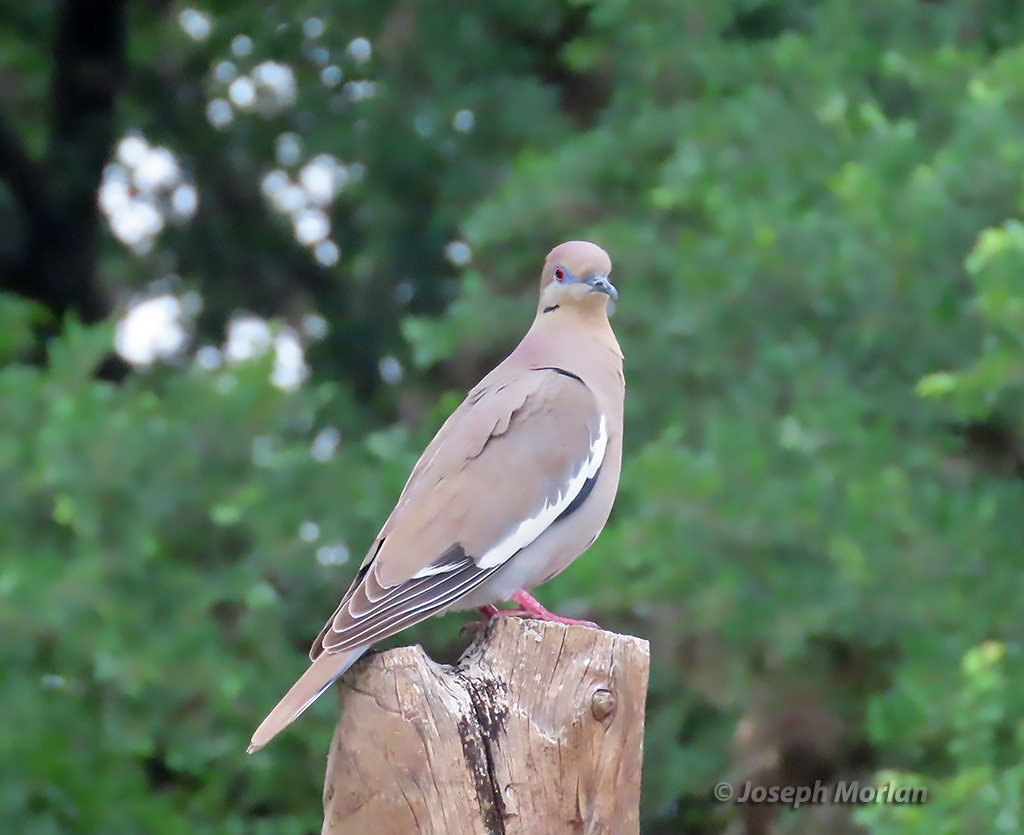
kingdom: Animalia
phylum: Chordata
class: Aves
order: Columbiformes
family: Columbidae
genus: Zenaida
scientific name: Zenaida asiatica
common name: White-winged dove
